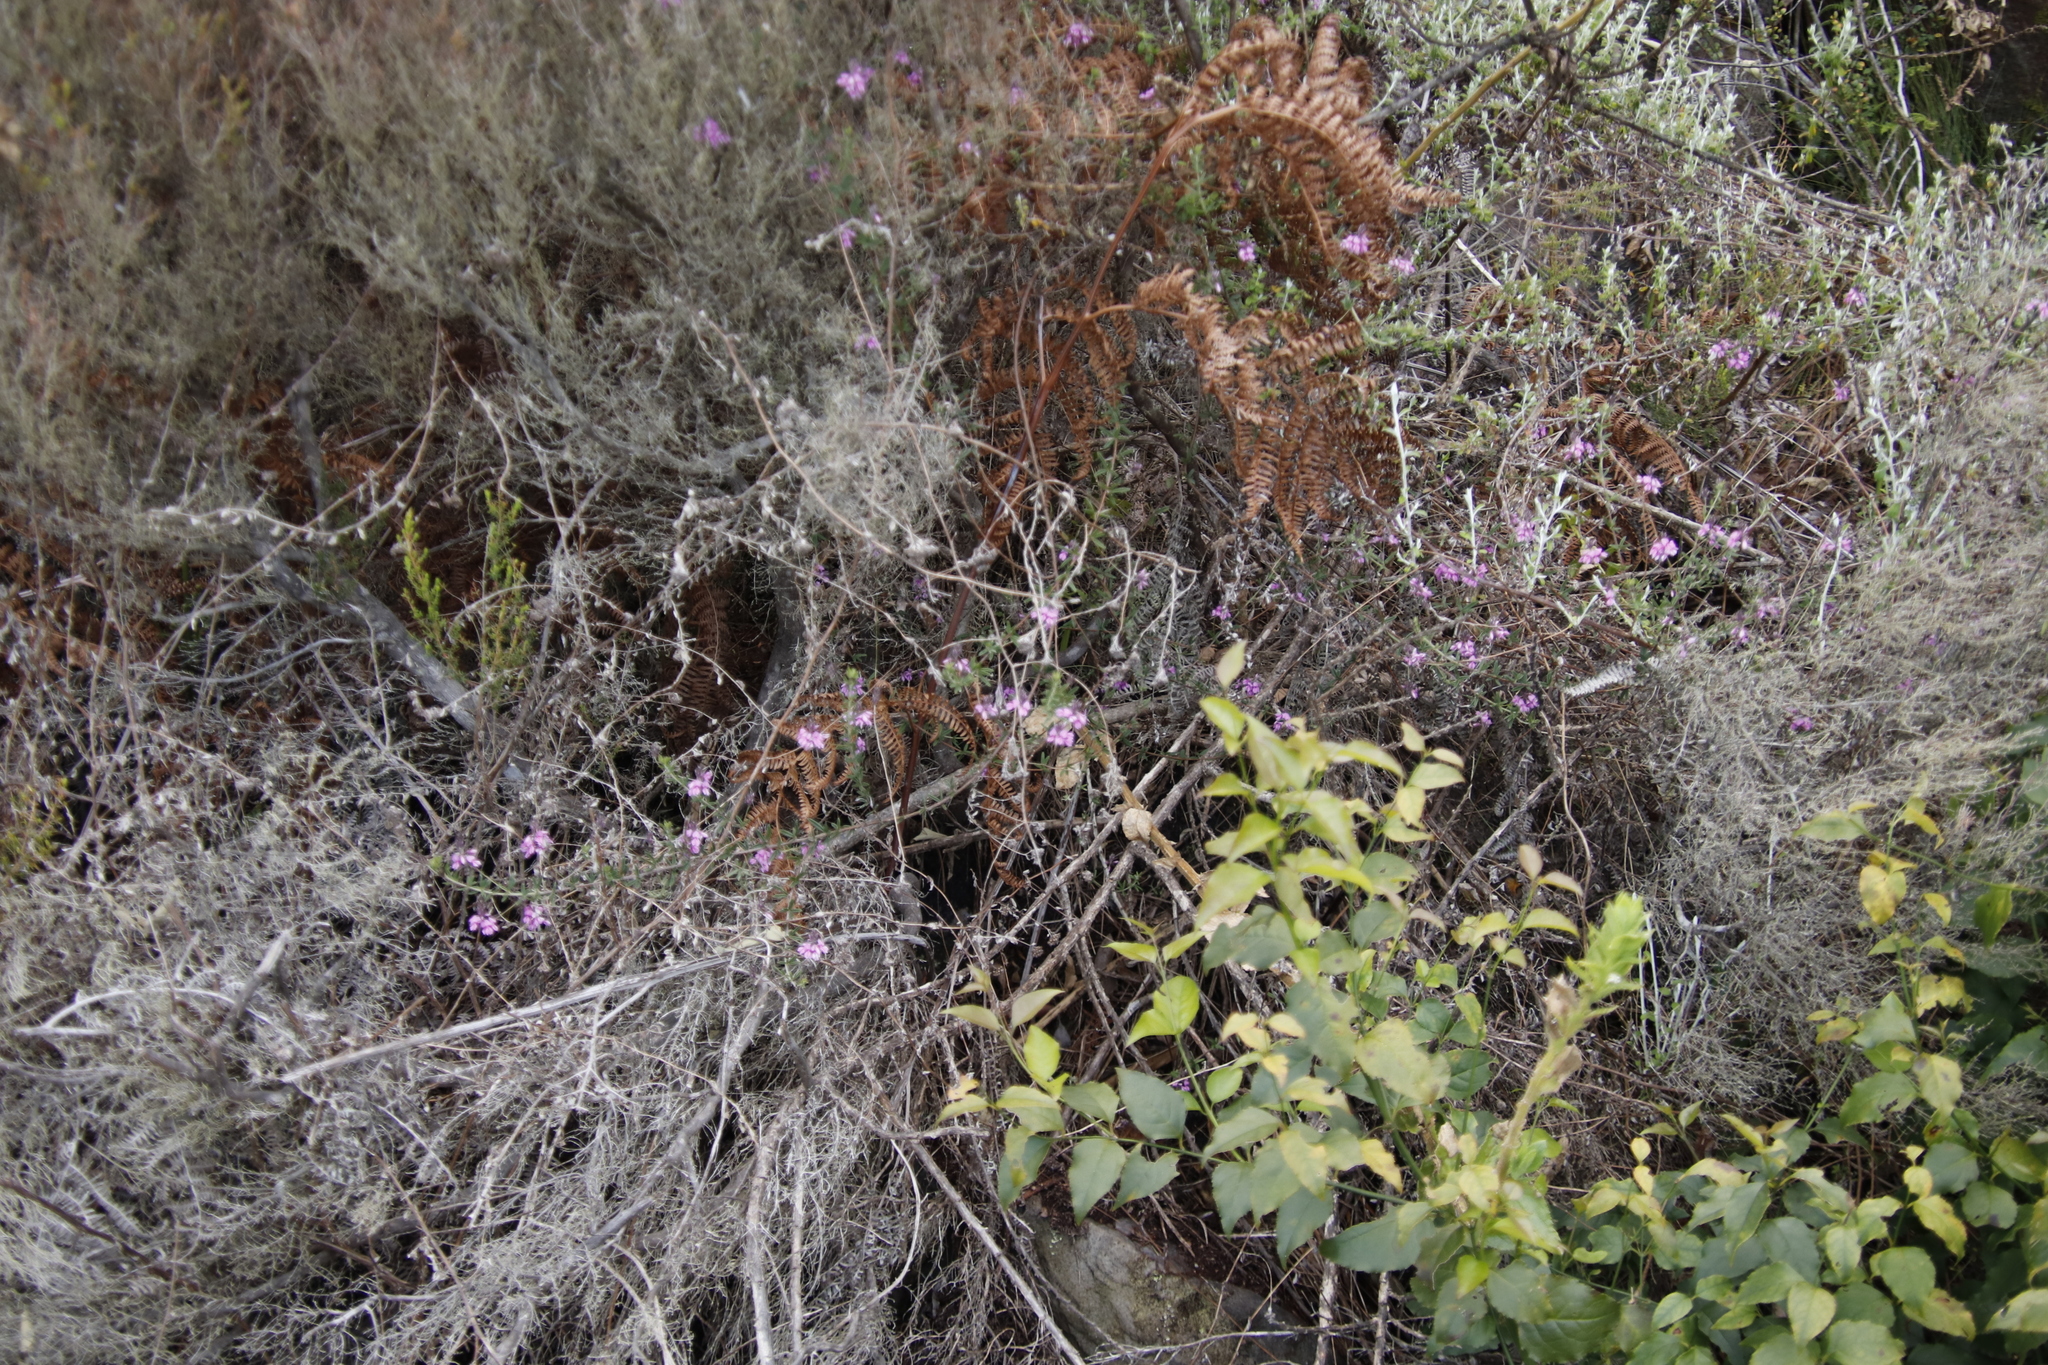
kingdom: Plantae
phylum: Tracheophyta
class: Magnoliopsida
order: Fabales
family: Fabaceae
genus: Indigofera
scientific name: Indigofera filiformis
